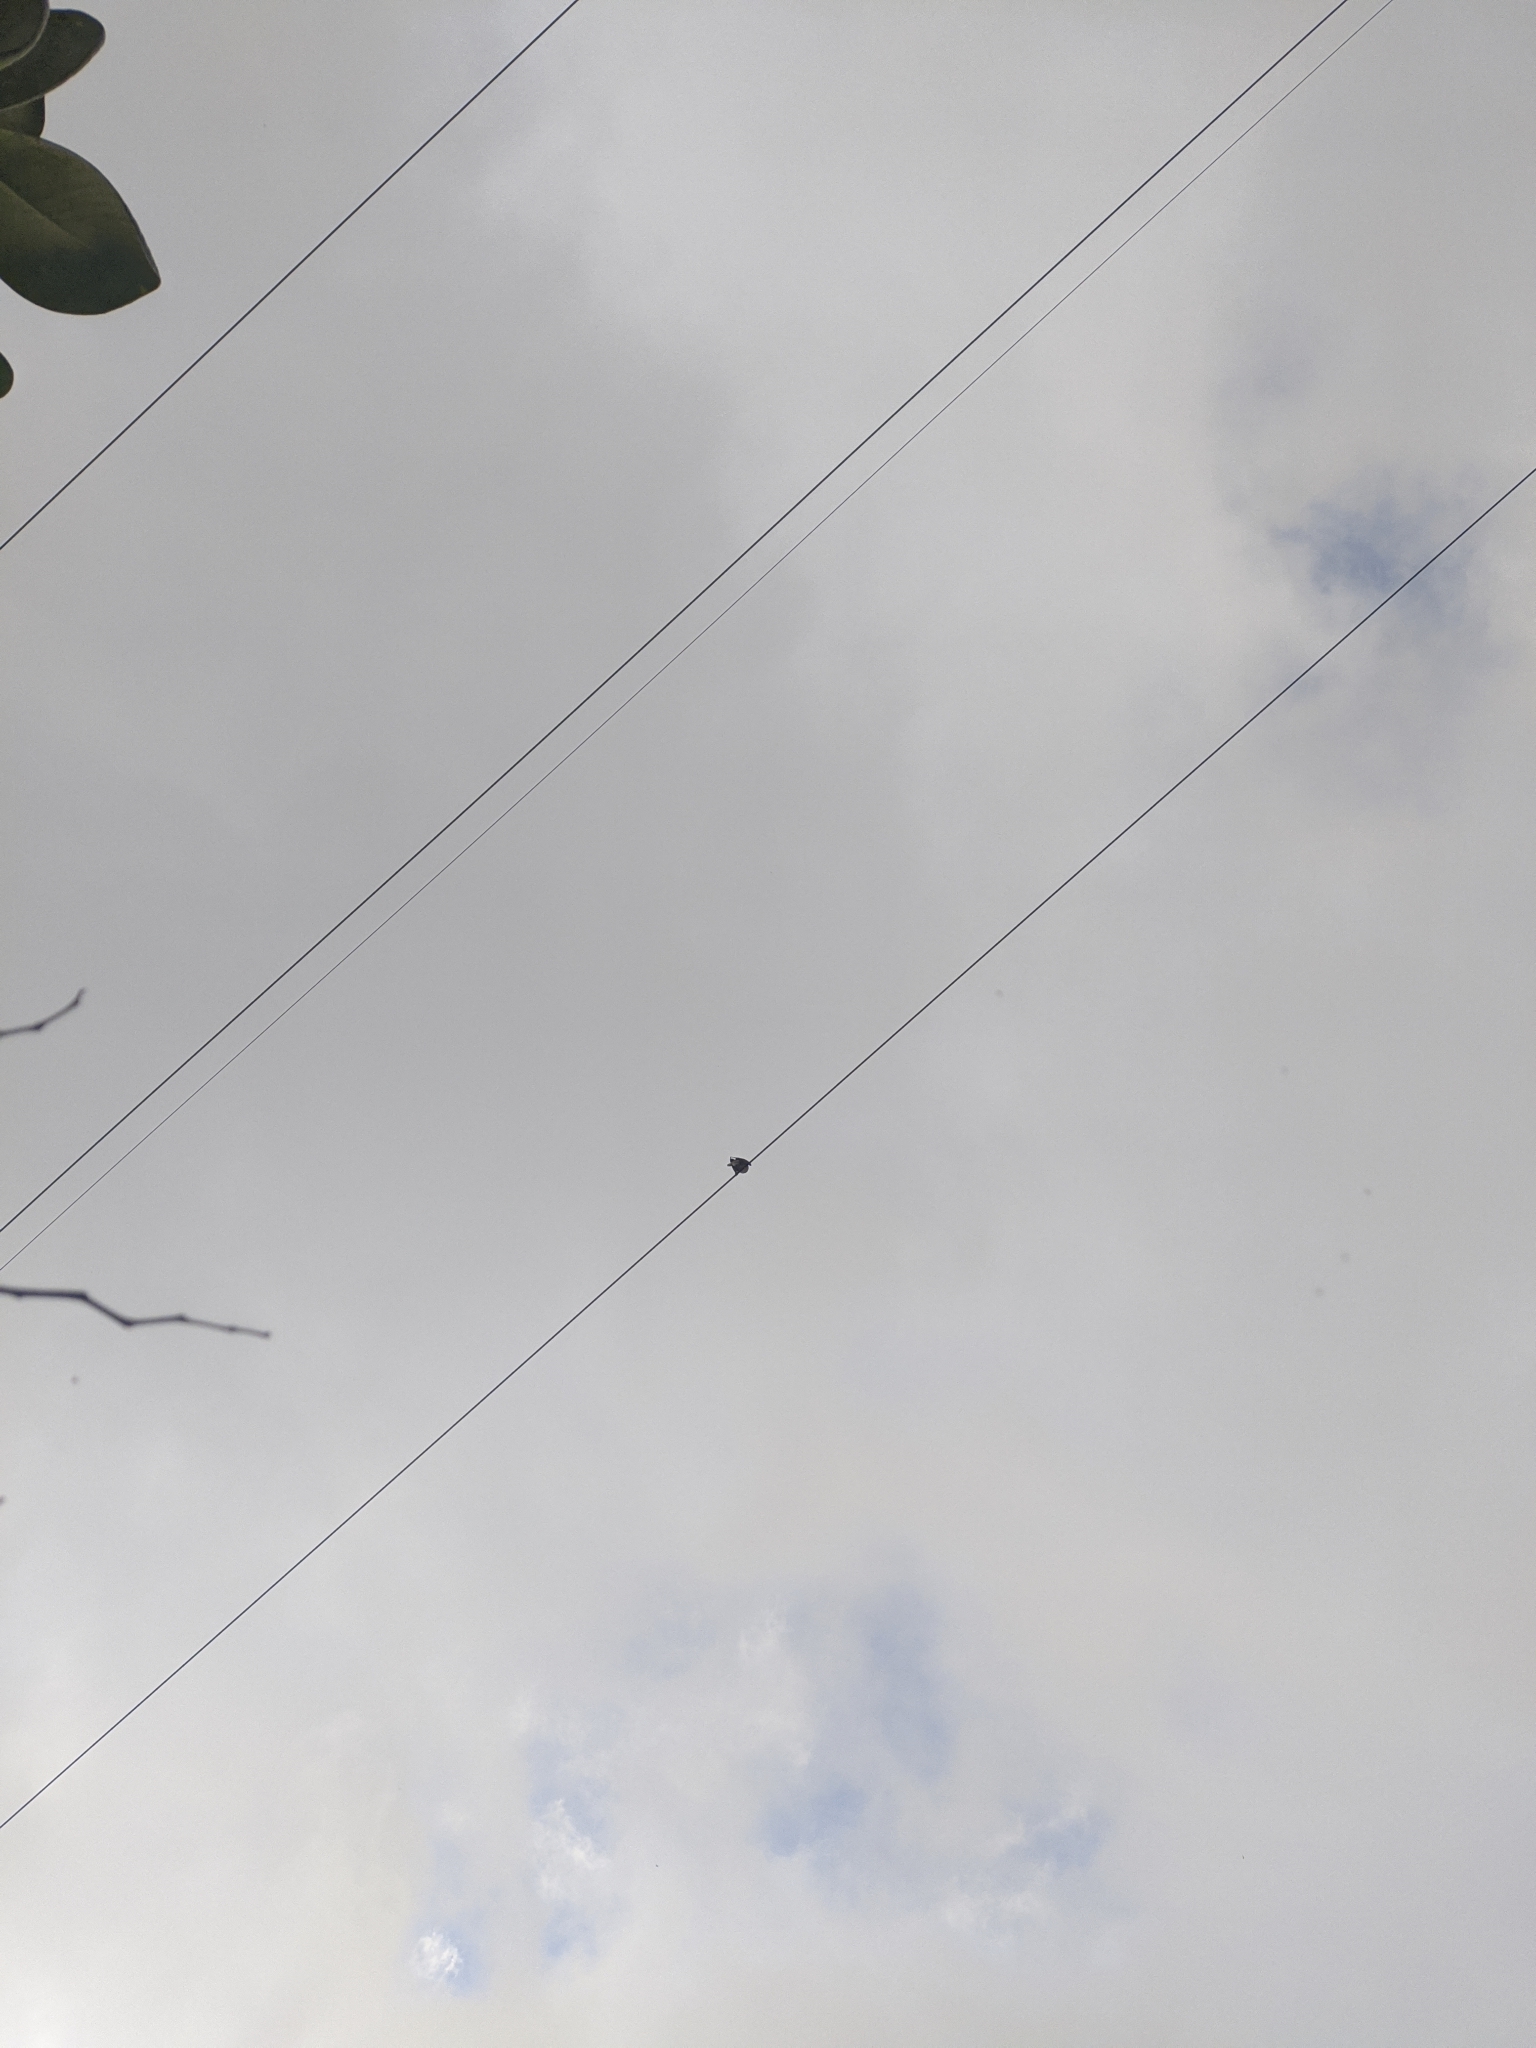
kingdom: Animalia
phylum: Chordata
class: Aves
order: Columbiformes
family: Columbidae
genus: Patagioenas
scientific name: Patagioenas fasciata
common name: Band-tailed pigeon
